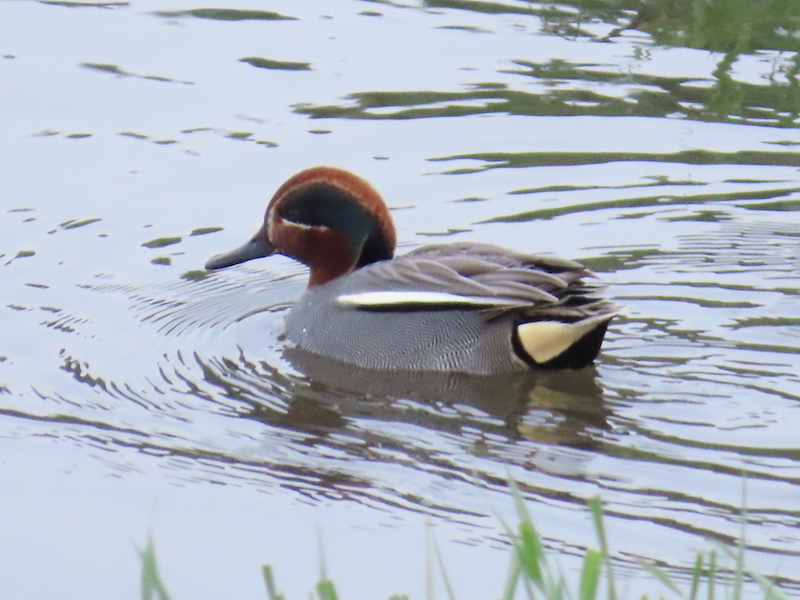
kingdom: Animalia
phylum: Chordata
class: Aves
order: Anseriformes
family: Anatidae
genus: Anas
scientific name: Anas crecca
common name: Eurasian teal
